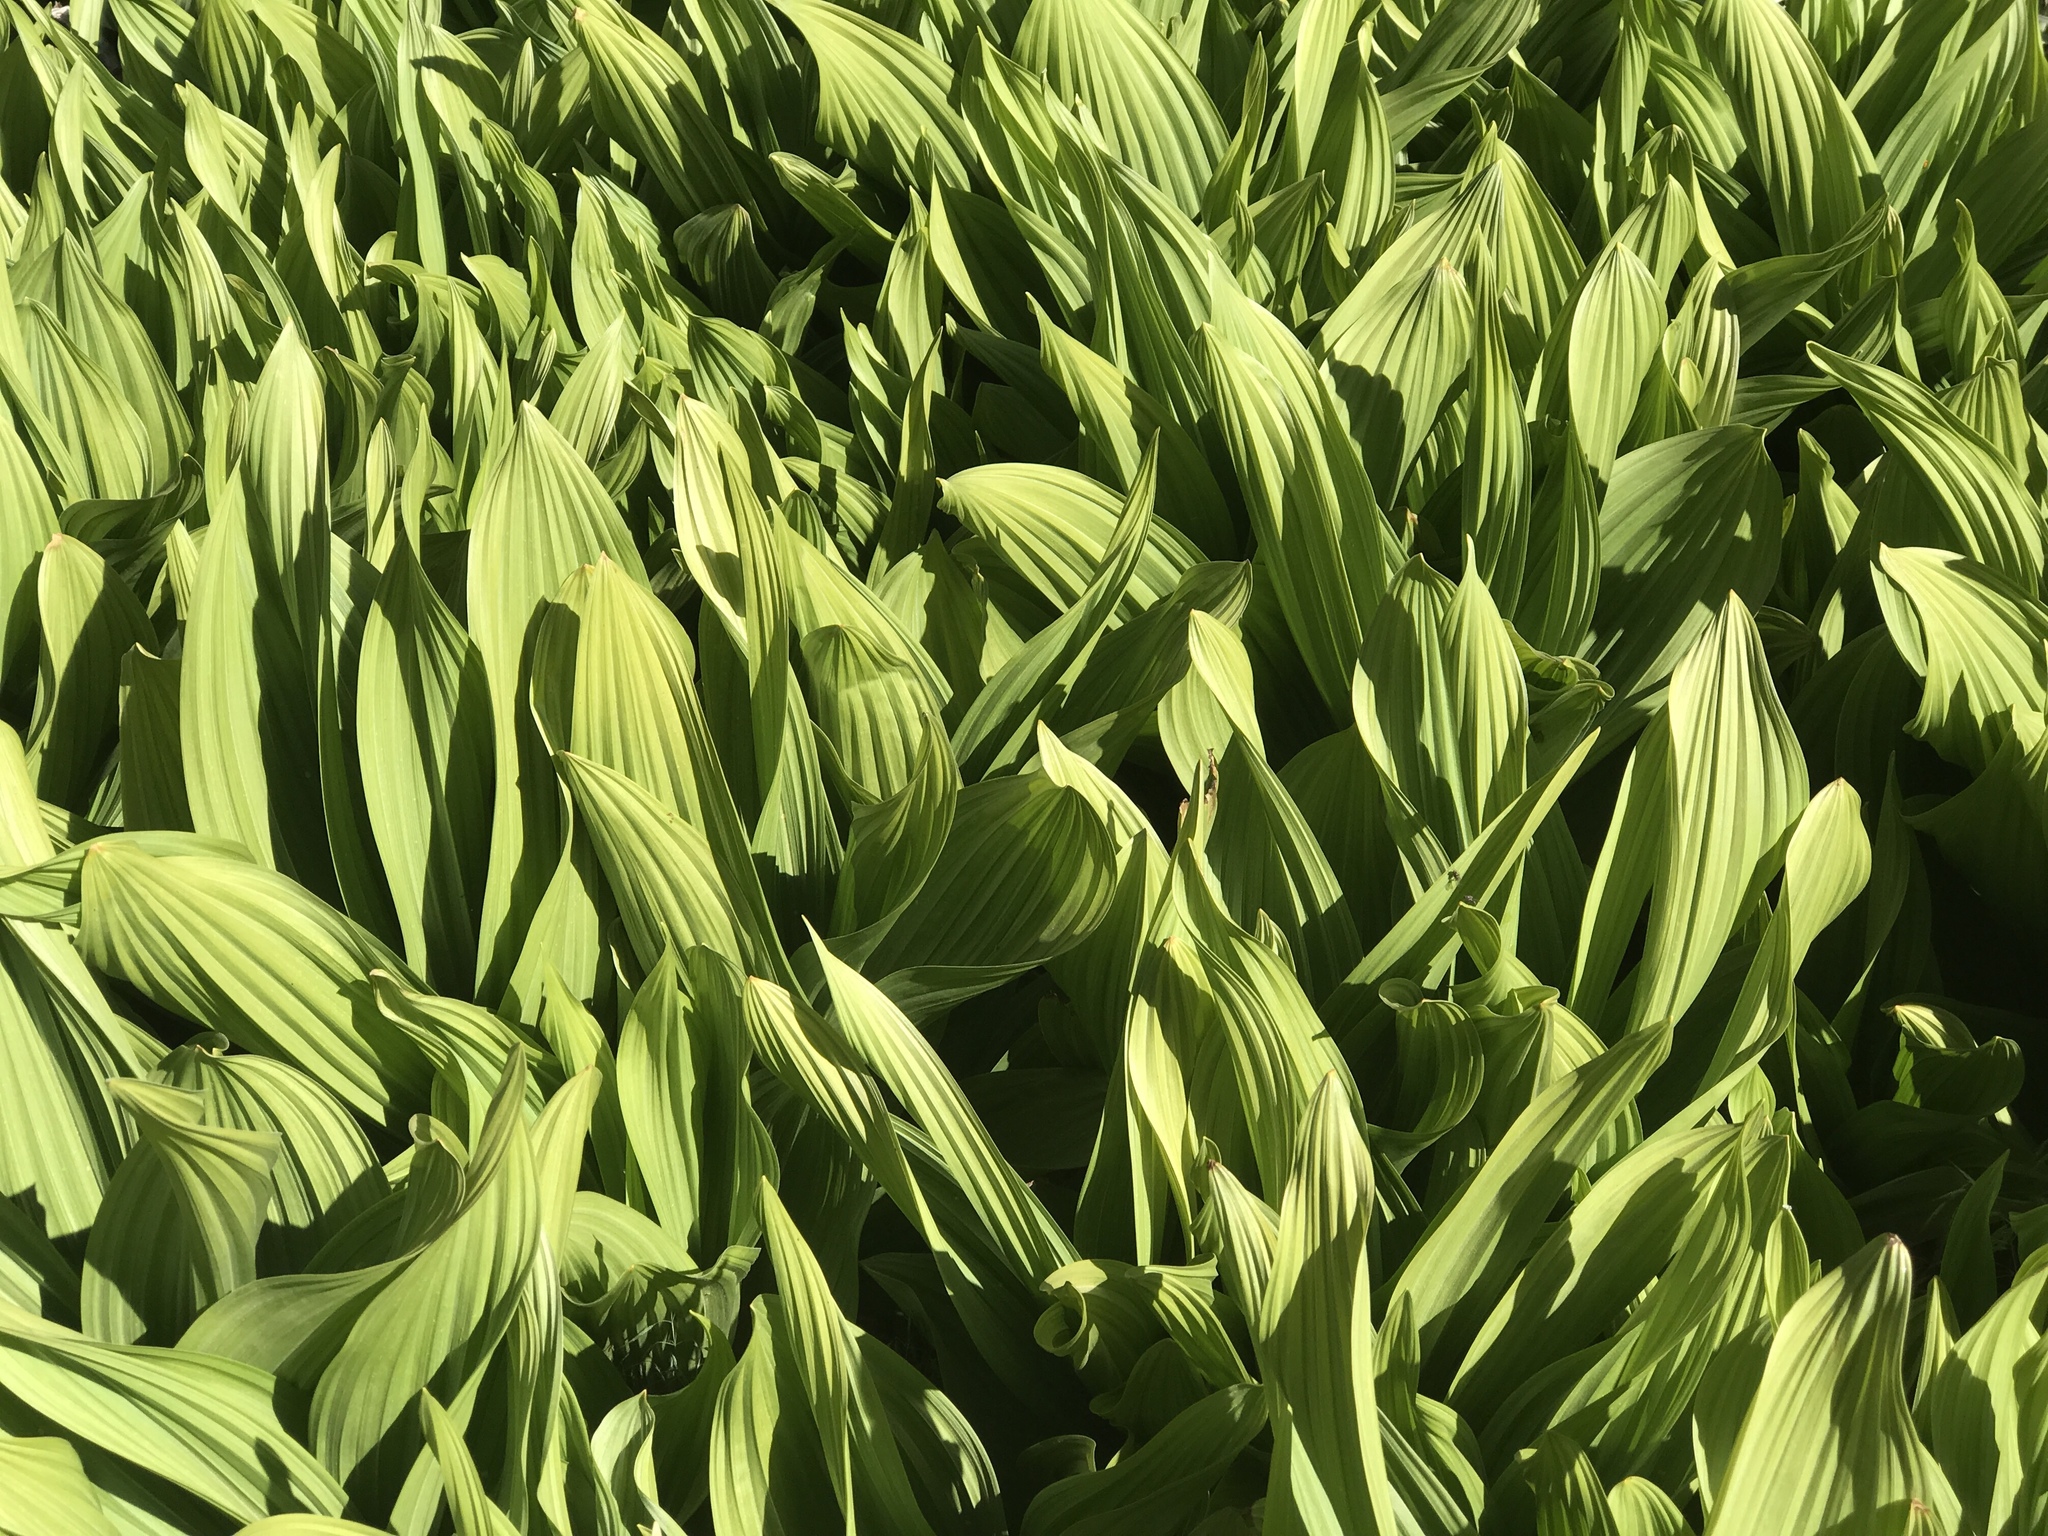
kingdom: Plantae
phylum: Tracheophyta
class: Liliopsida
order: Liliales
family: Melanthiaceae
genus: Veratrum
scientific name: Veratrum californicum
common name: California veratrum
